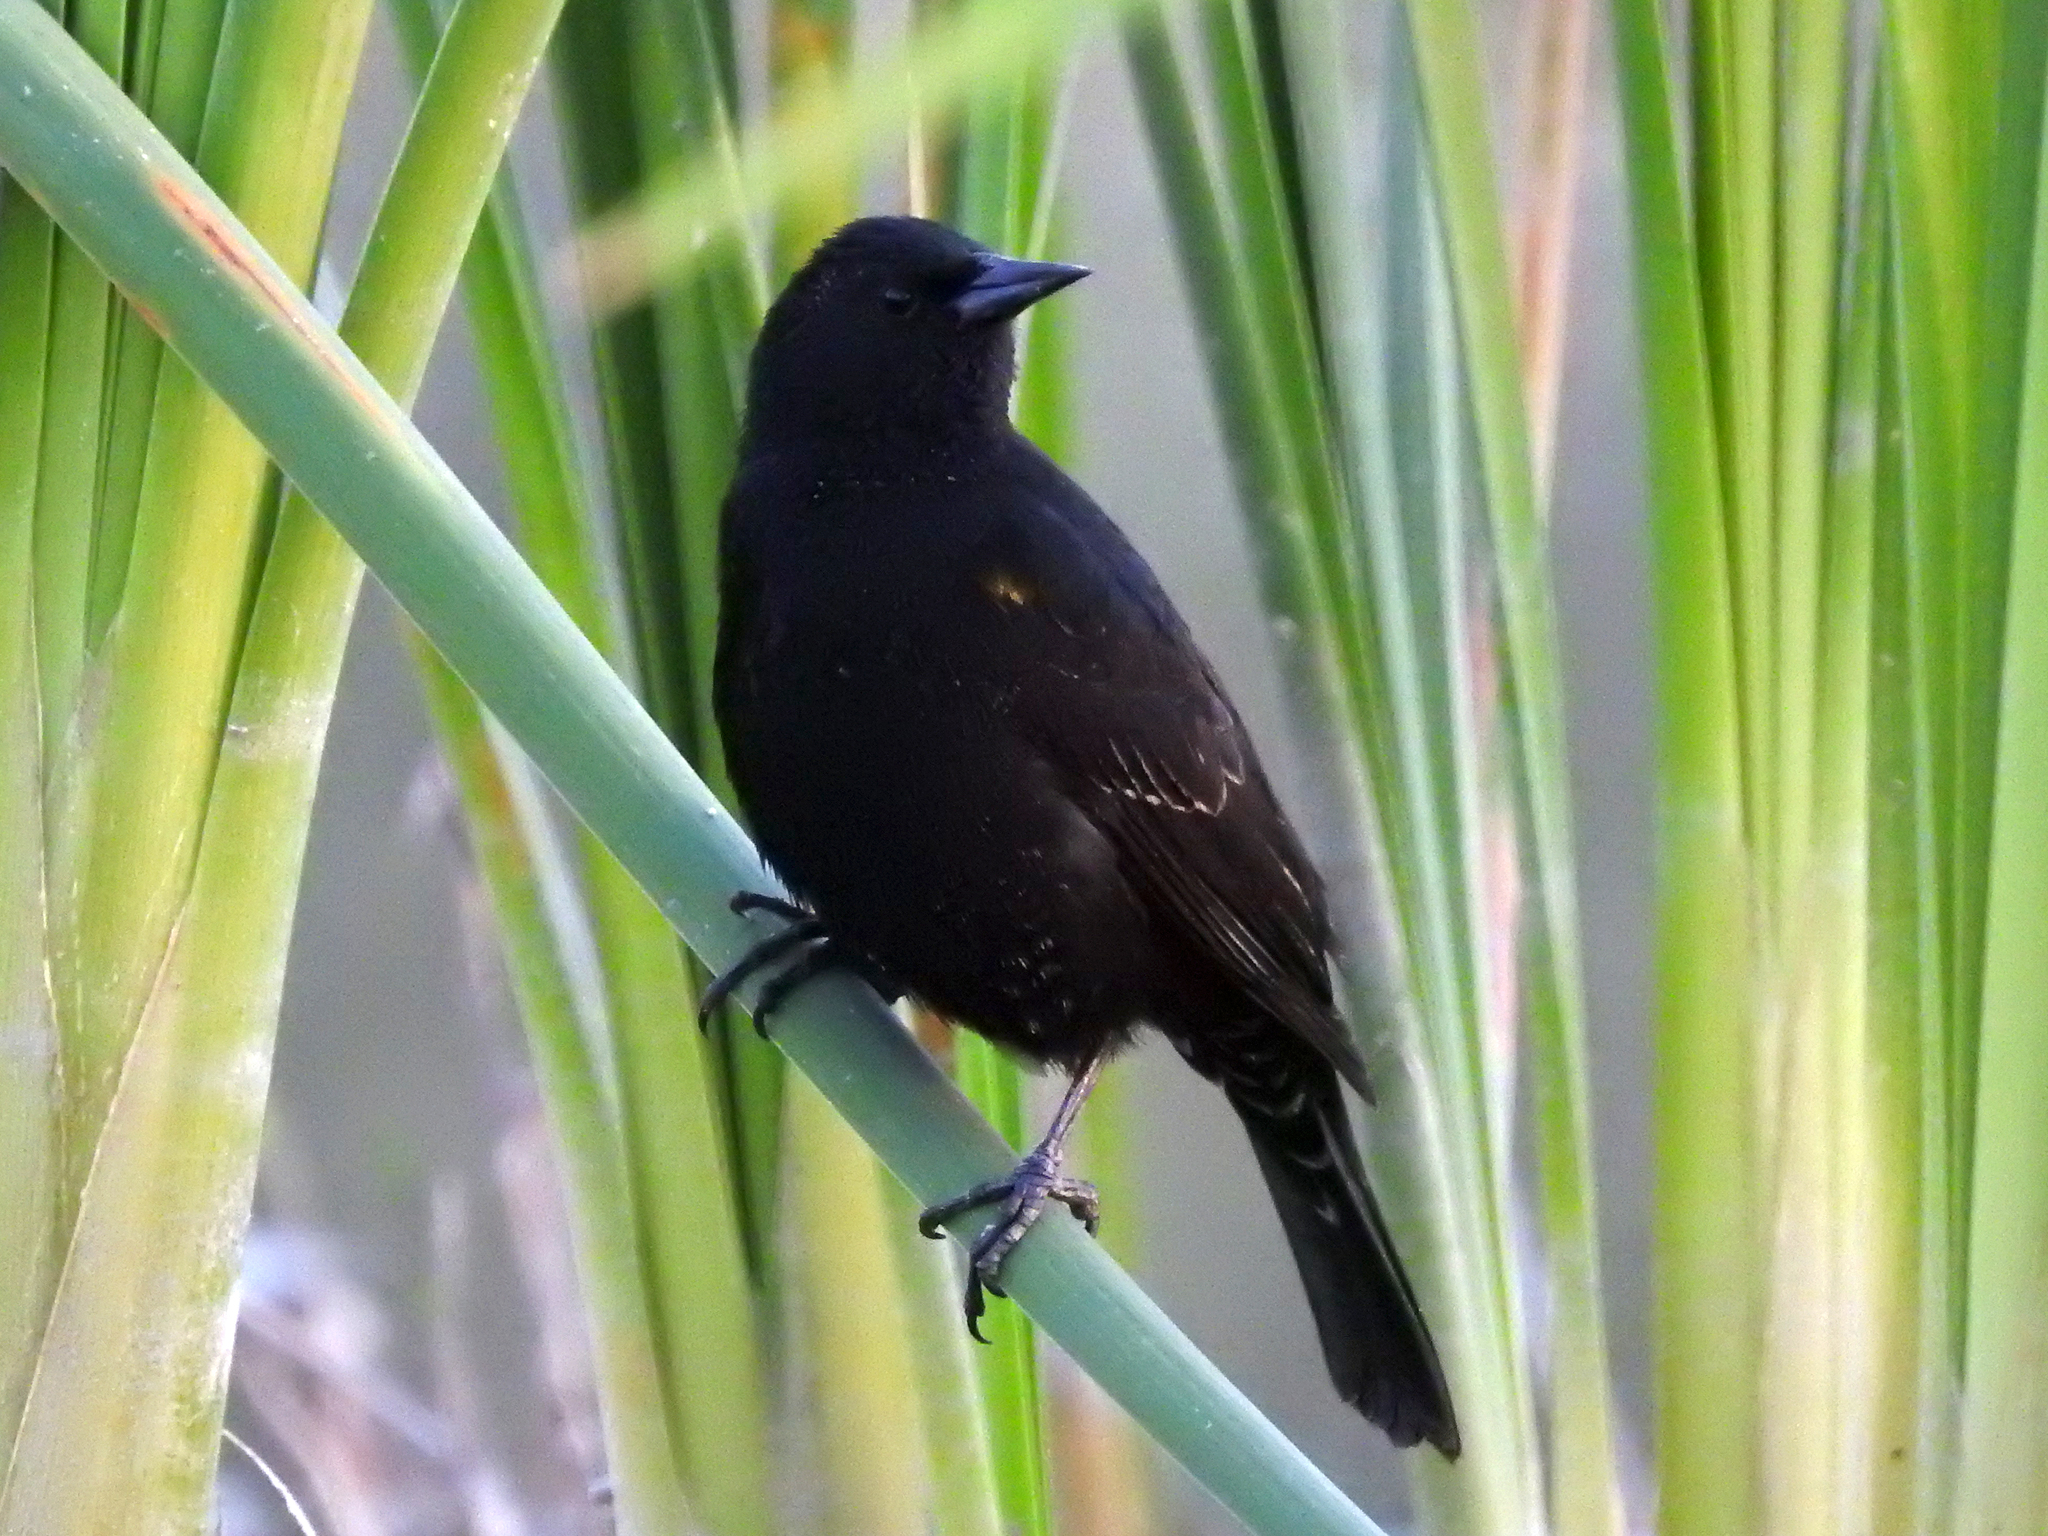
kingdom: Animalia
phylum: Chordata
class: Aves
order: Passeriformes
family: Icteridae
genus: Agelasticus
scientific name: Agelasticus thilius
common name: Yellow-winged blackbird
